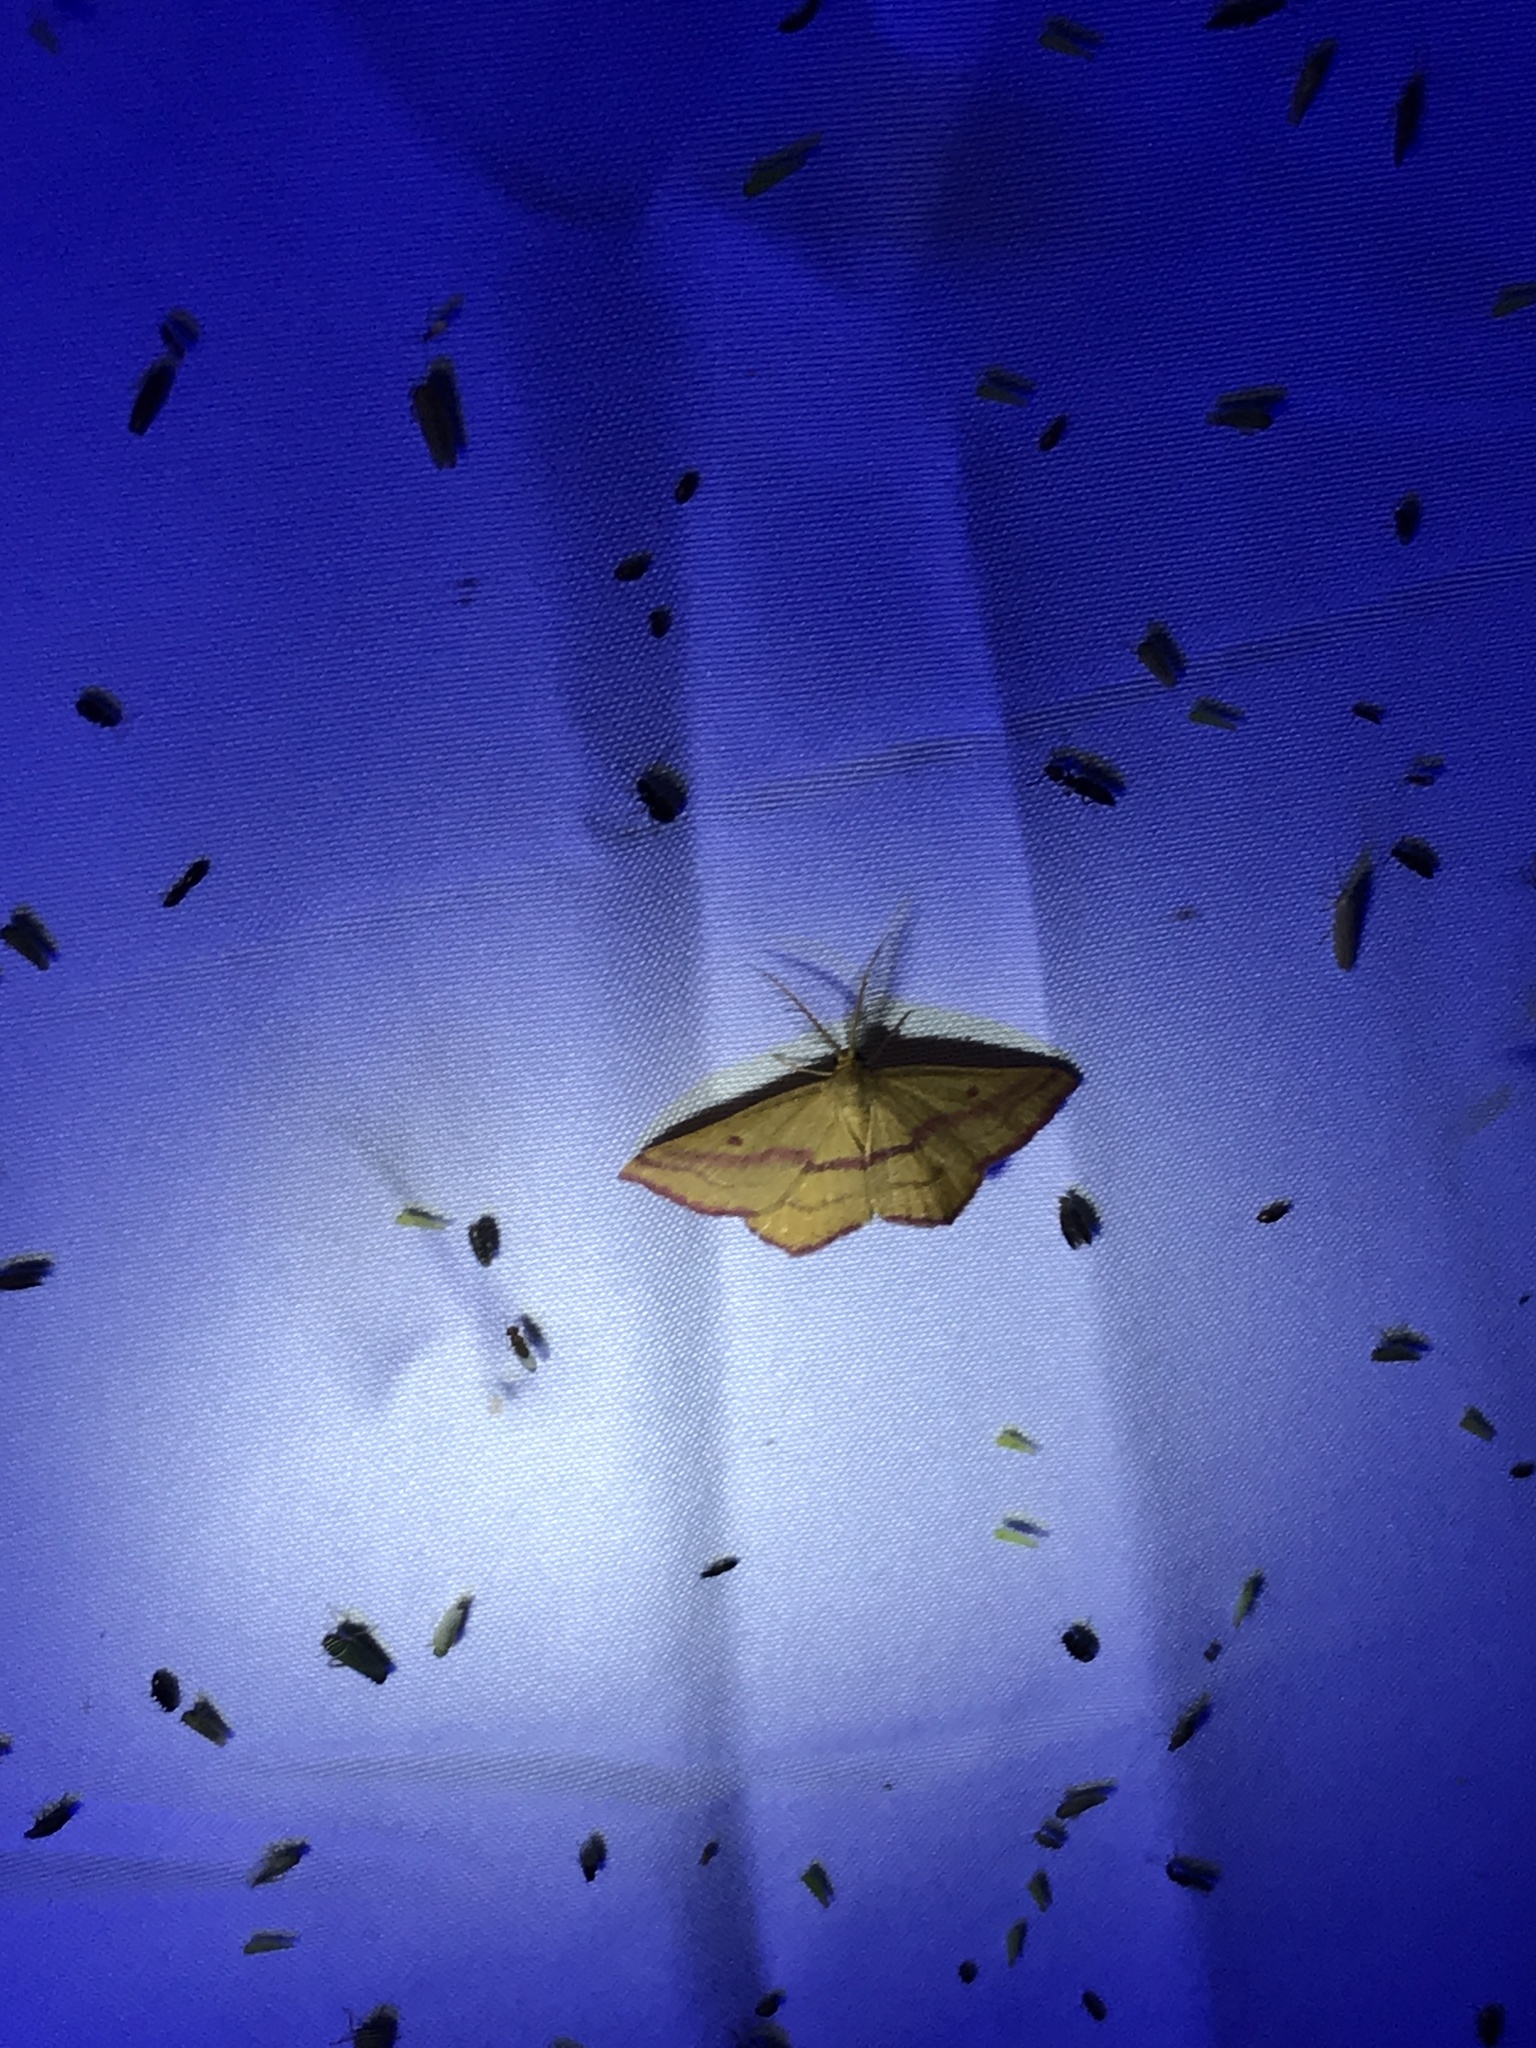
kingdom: Animalia
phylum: Arthropoda
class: Insecta
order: Lepidoptera
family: Geometridae
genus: Haematopis
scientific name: Haematopis grataria
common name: Chickweed geometer
